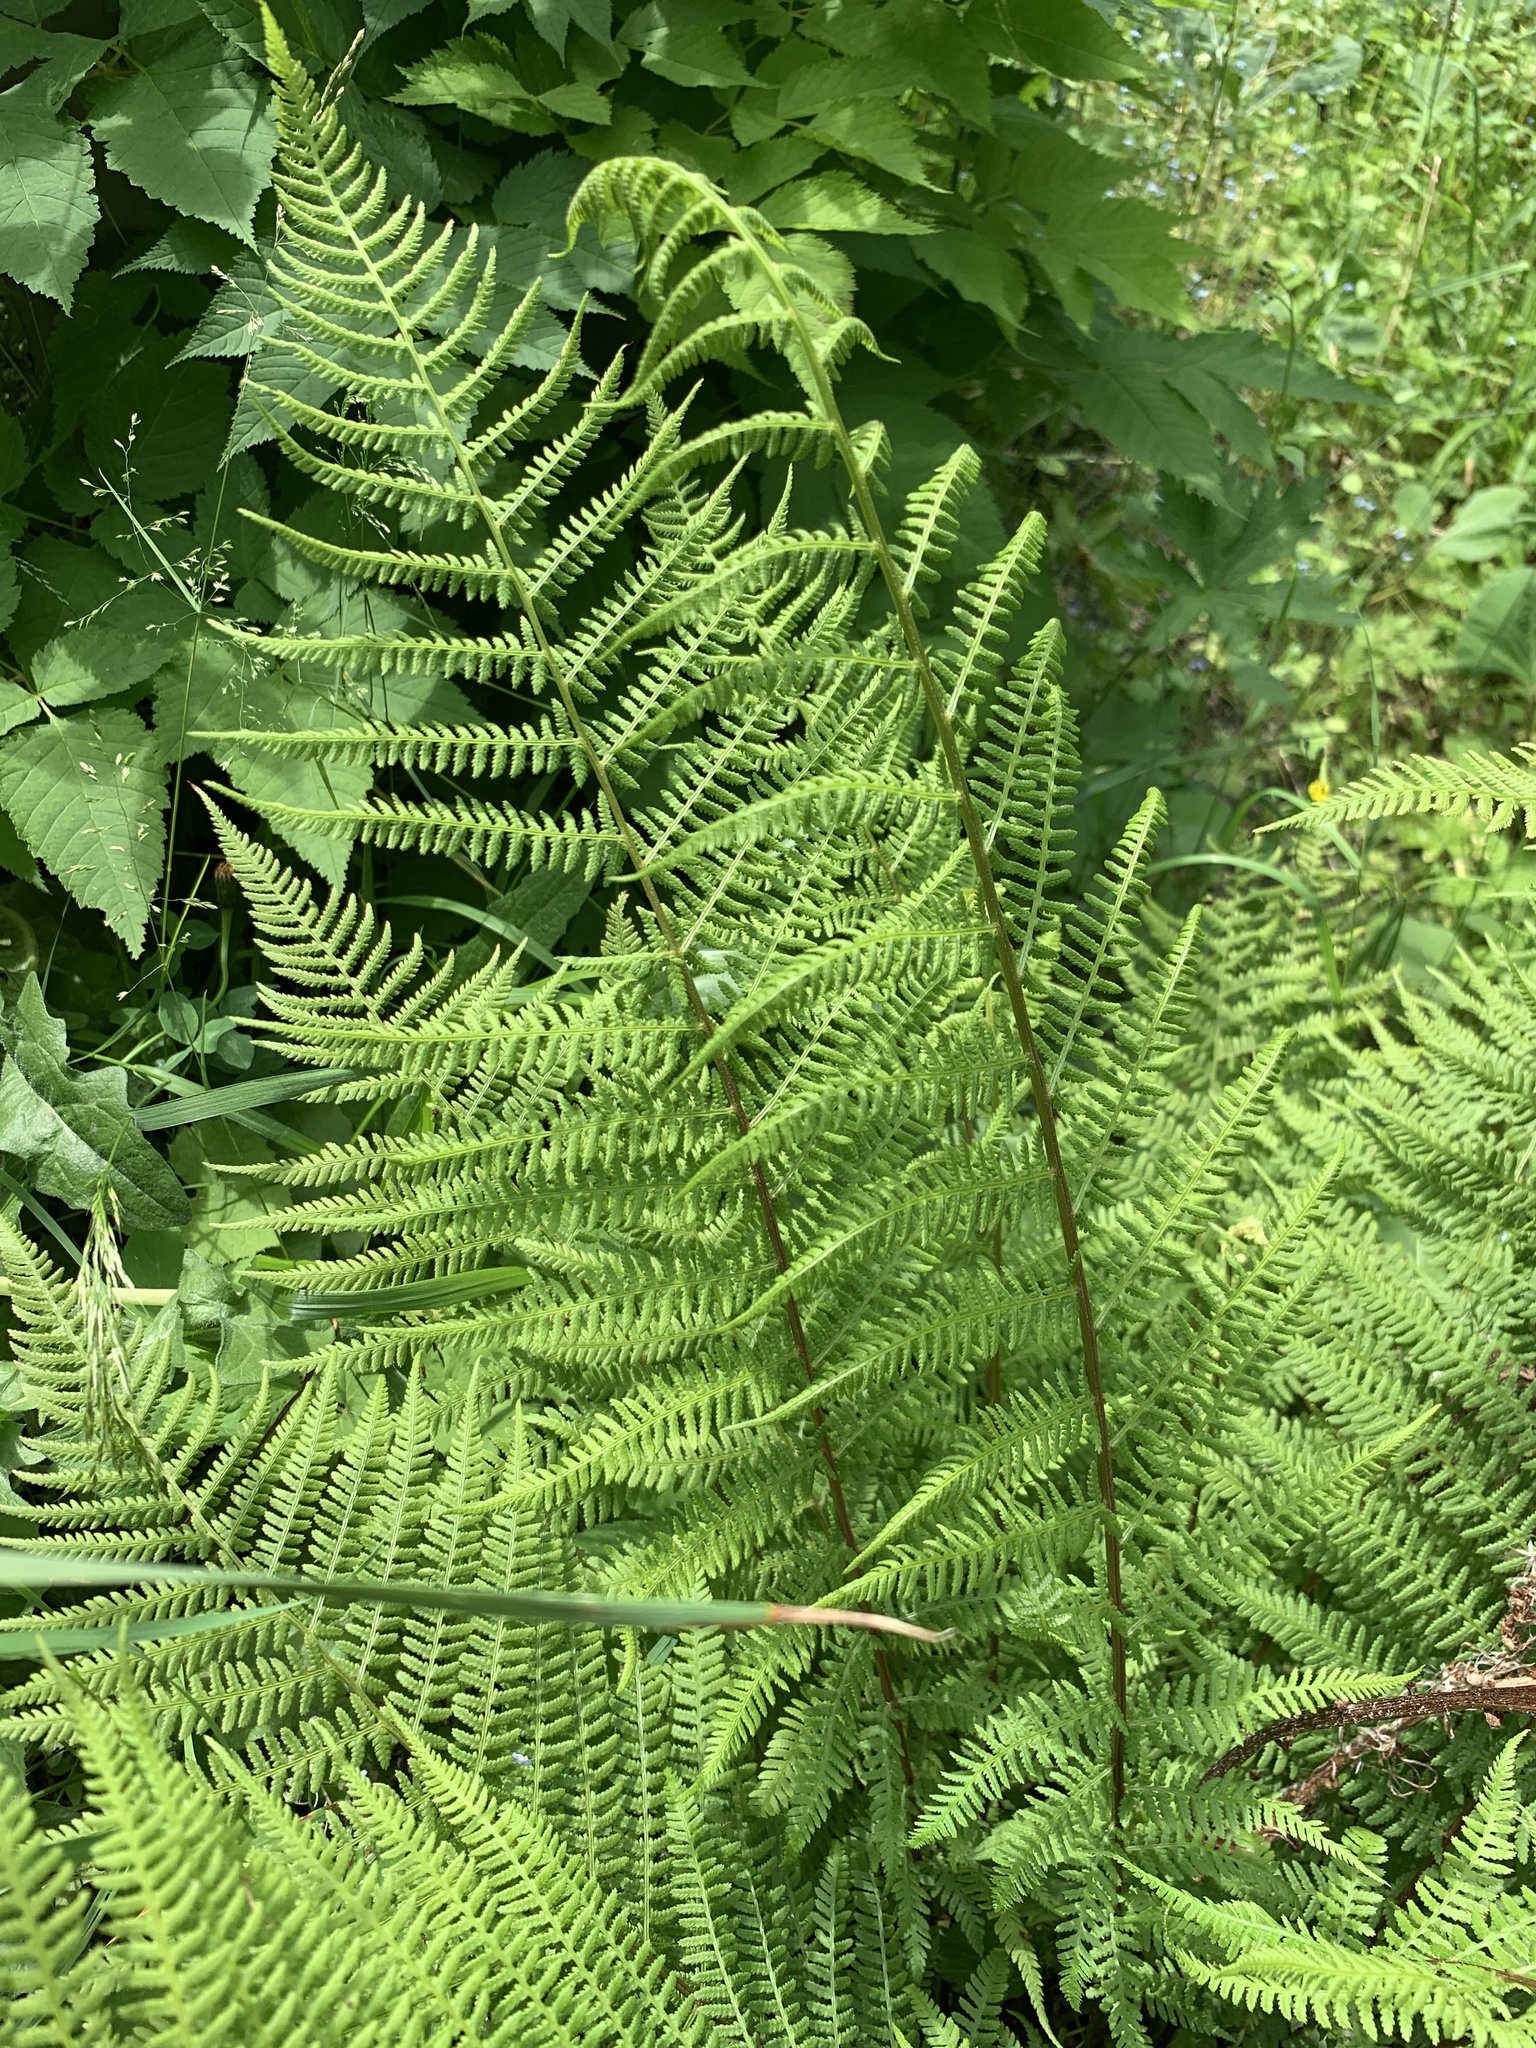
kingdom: Plantae
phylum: Tracheophyta
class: Polypodiopsida
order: Polypodiales
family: Athyriaceae
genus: Athyrium
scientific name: Athyrium filix-femina
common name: Lady fern
